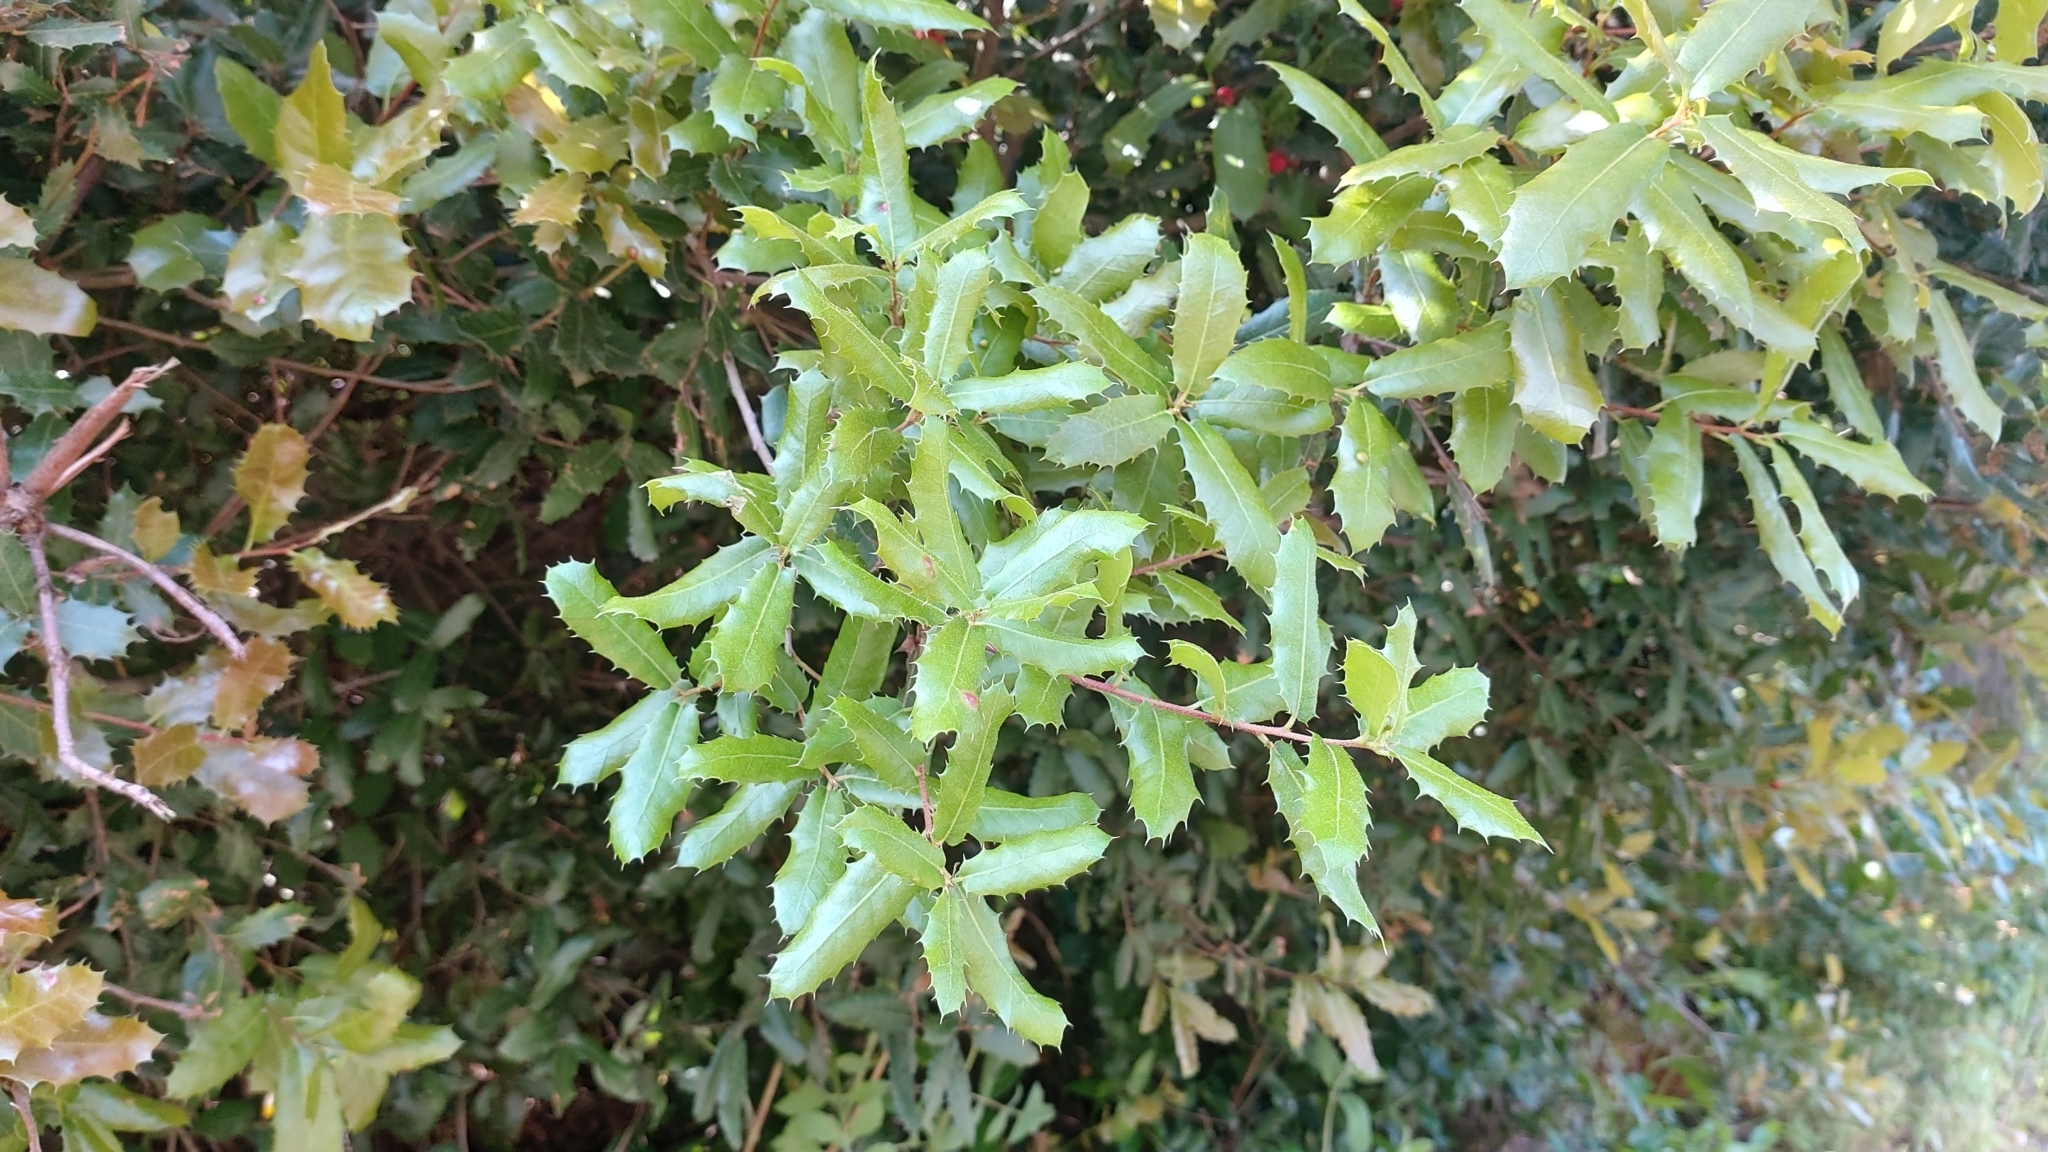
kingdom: Plantae
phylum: Tracheophyta
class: Magnoliopsida
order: Fagales
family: Fagaceae
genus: Quercus
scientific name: Quercus coccifera
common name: Kermes oak
